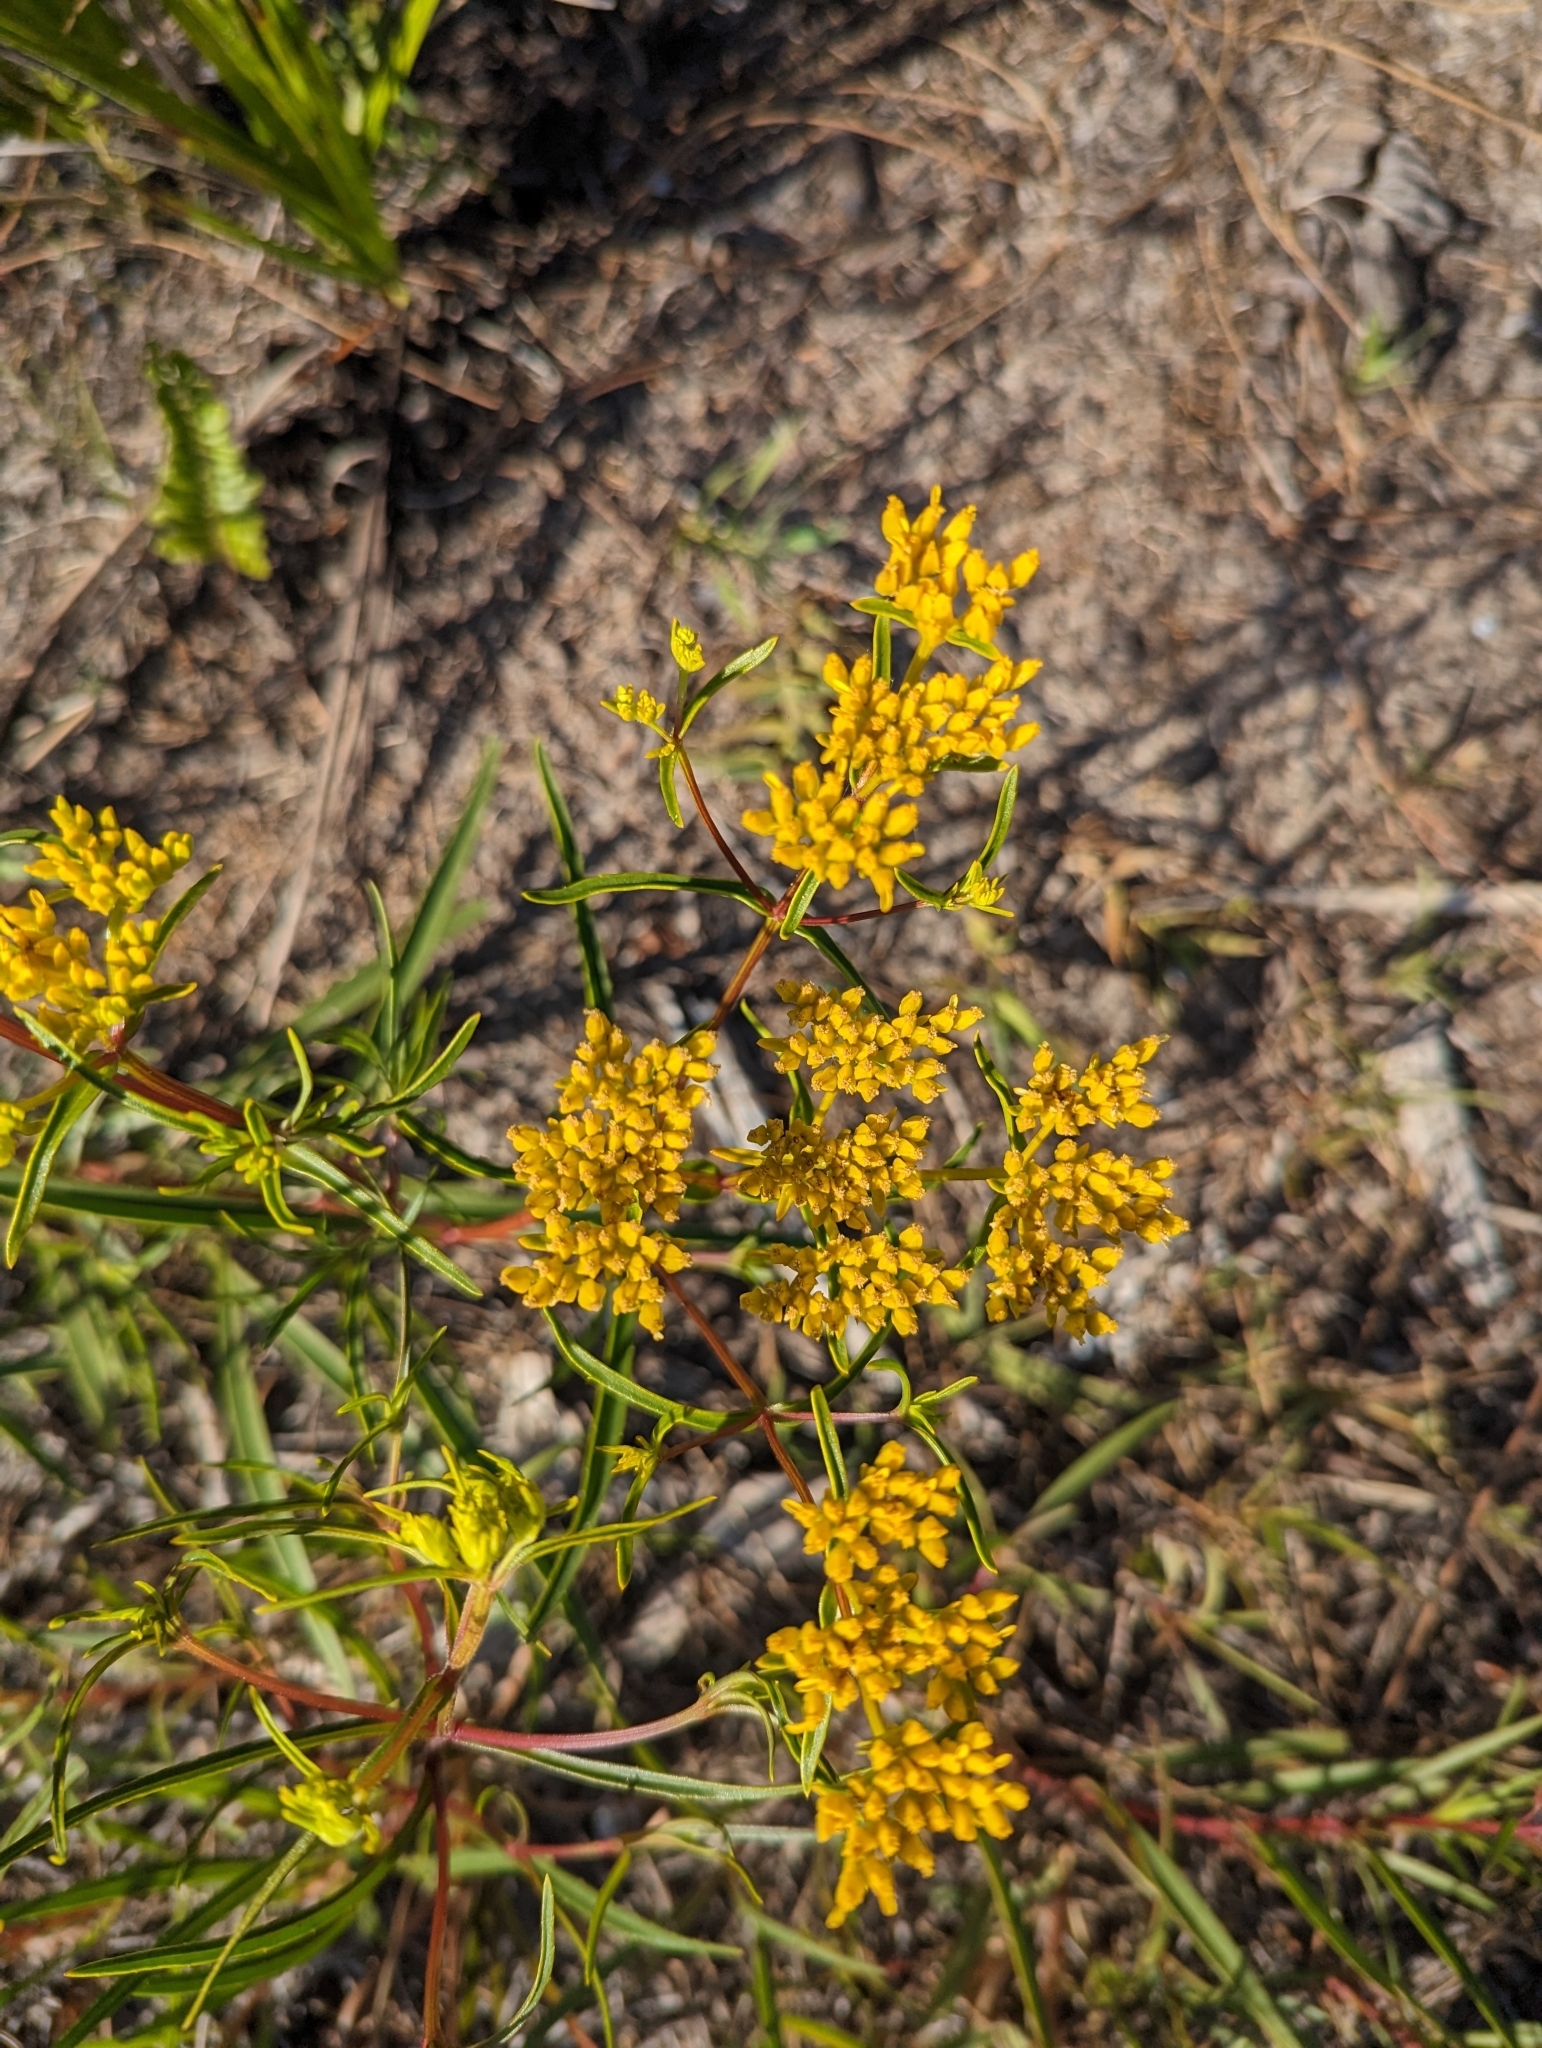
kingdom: Plantae
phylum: Tracheophyta
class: Magnoliopsida
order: Asterales
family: Asteraceae
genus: Flaveria
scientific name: Flaveria linearis
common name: Yellowtop
